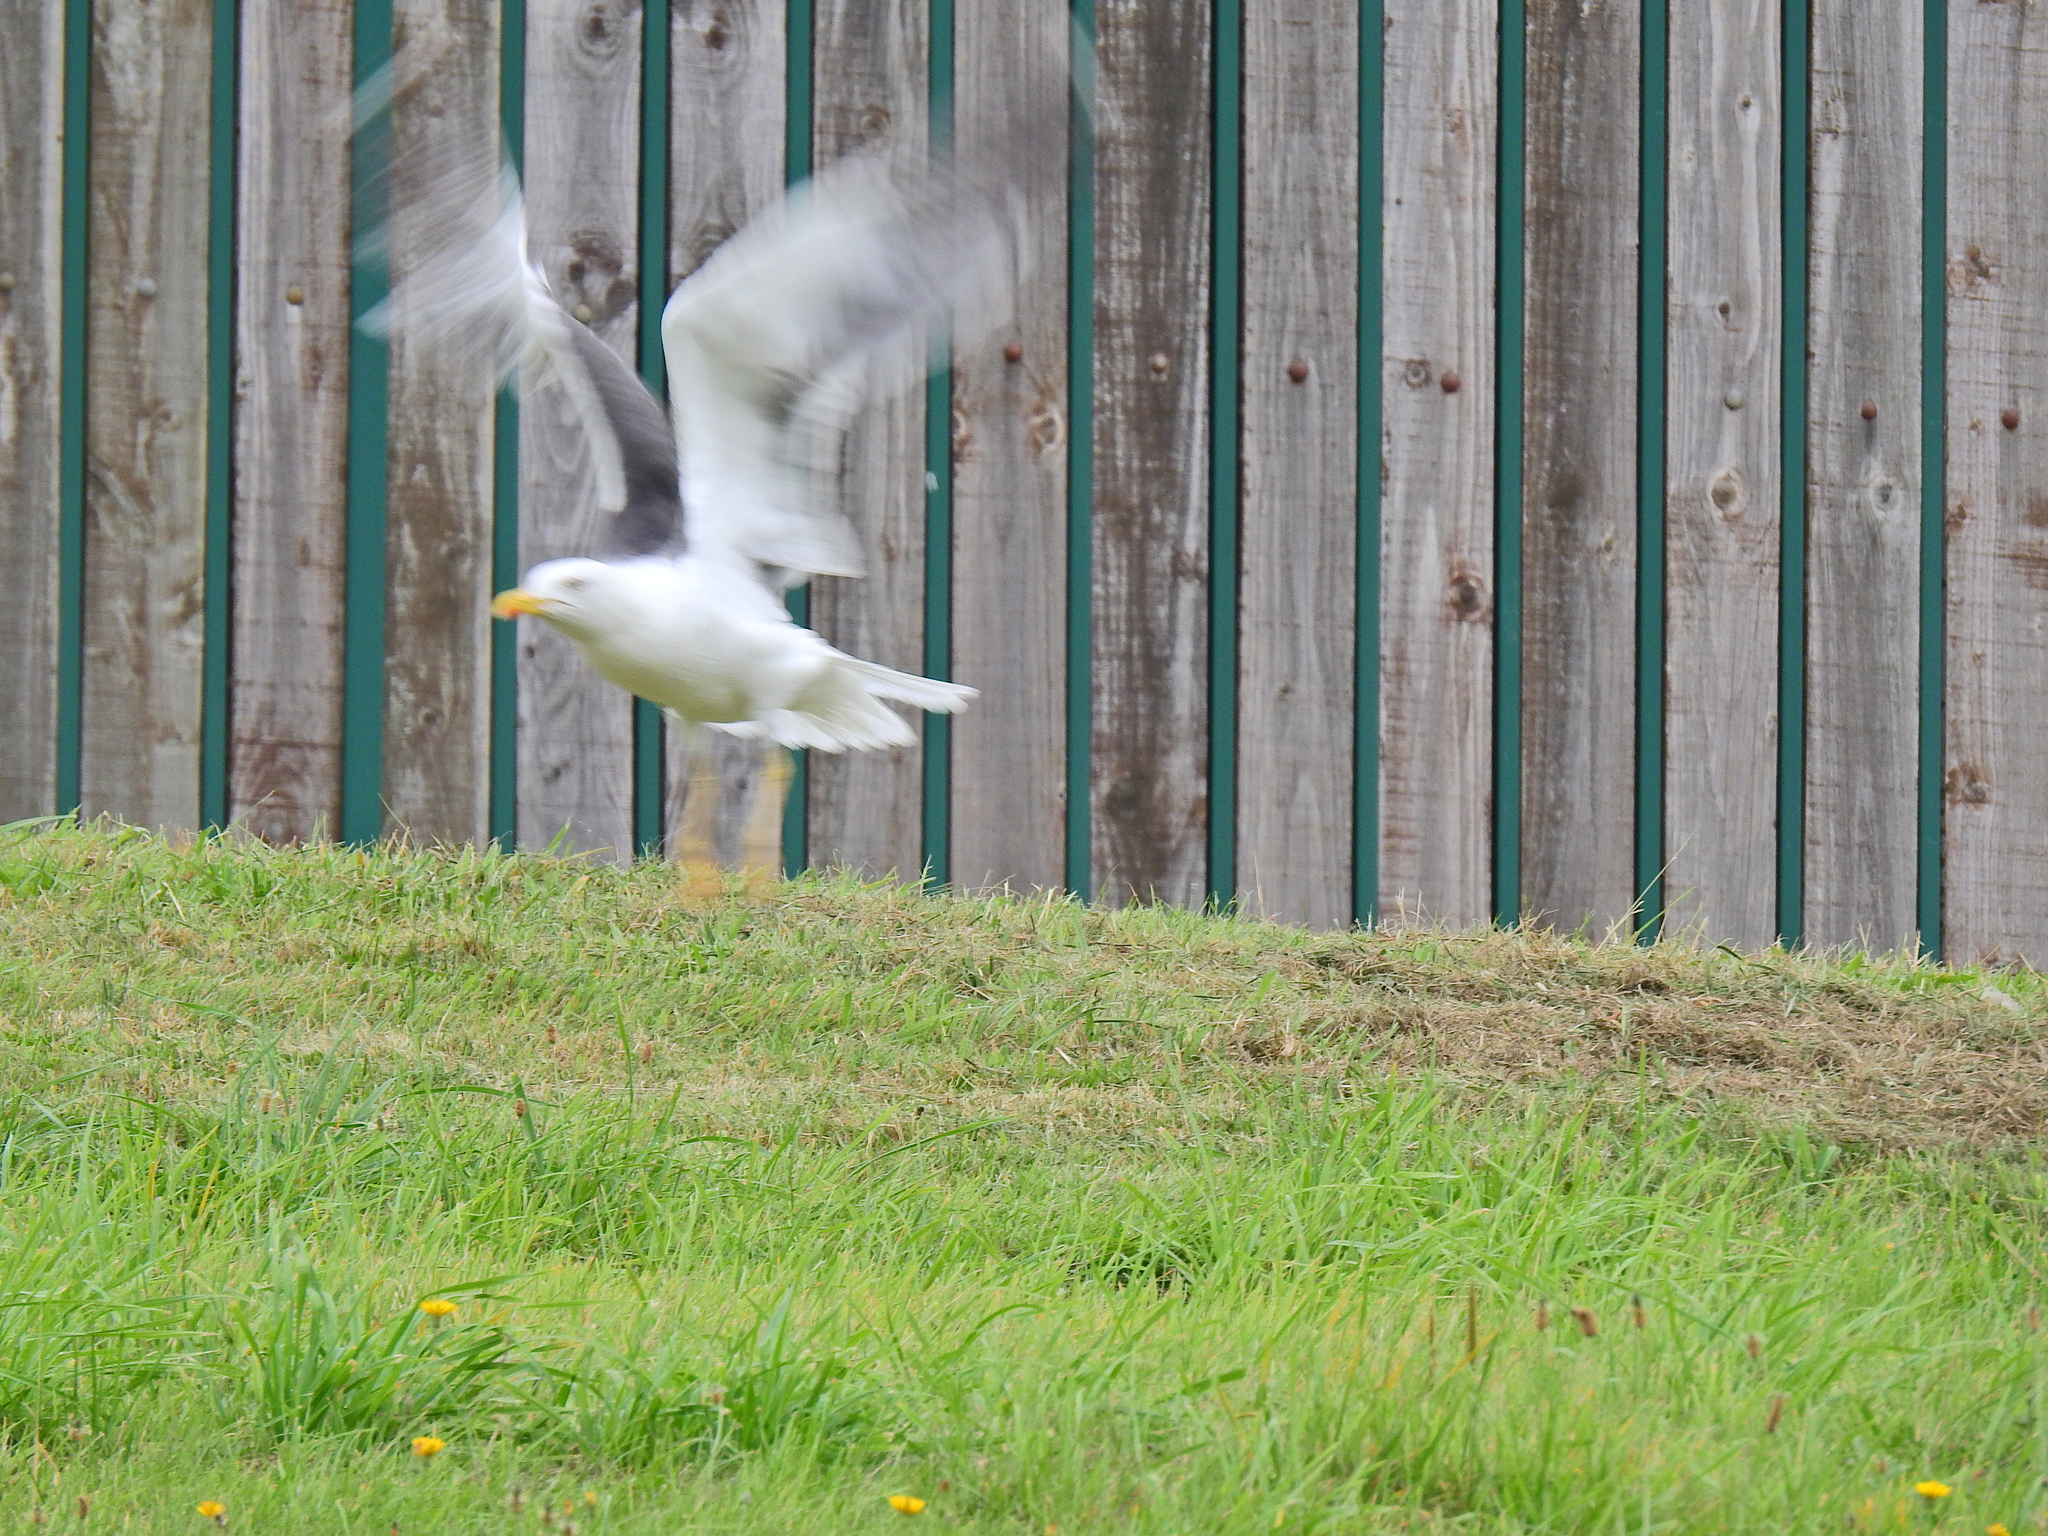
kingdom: Animalia
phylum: Chordata
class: Aves
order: Charadriiformes
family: Laridae
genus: Larus
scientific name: Larus fuscus
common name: Lesser black-backed gull
